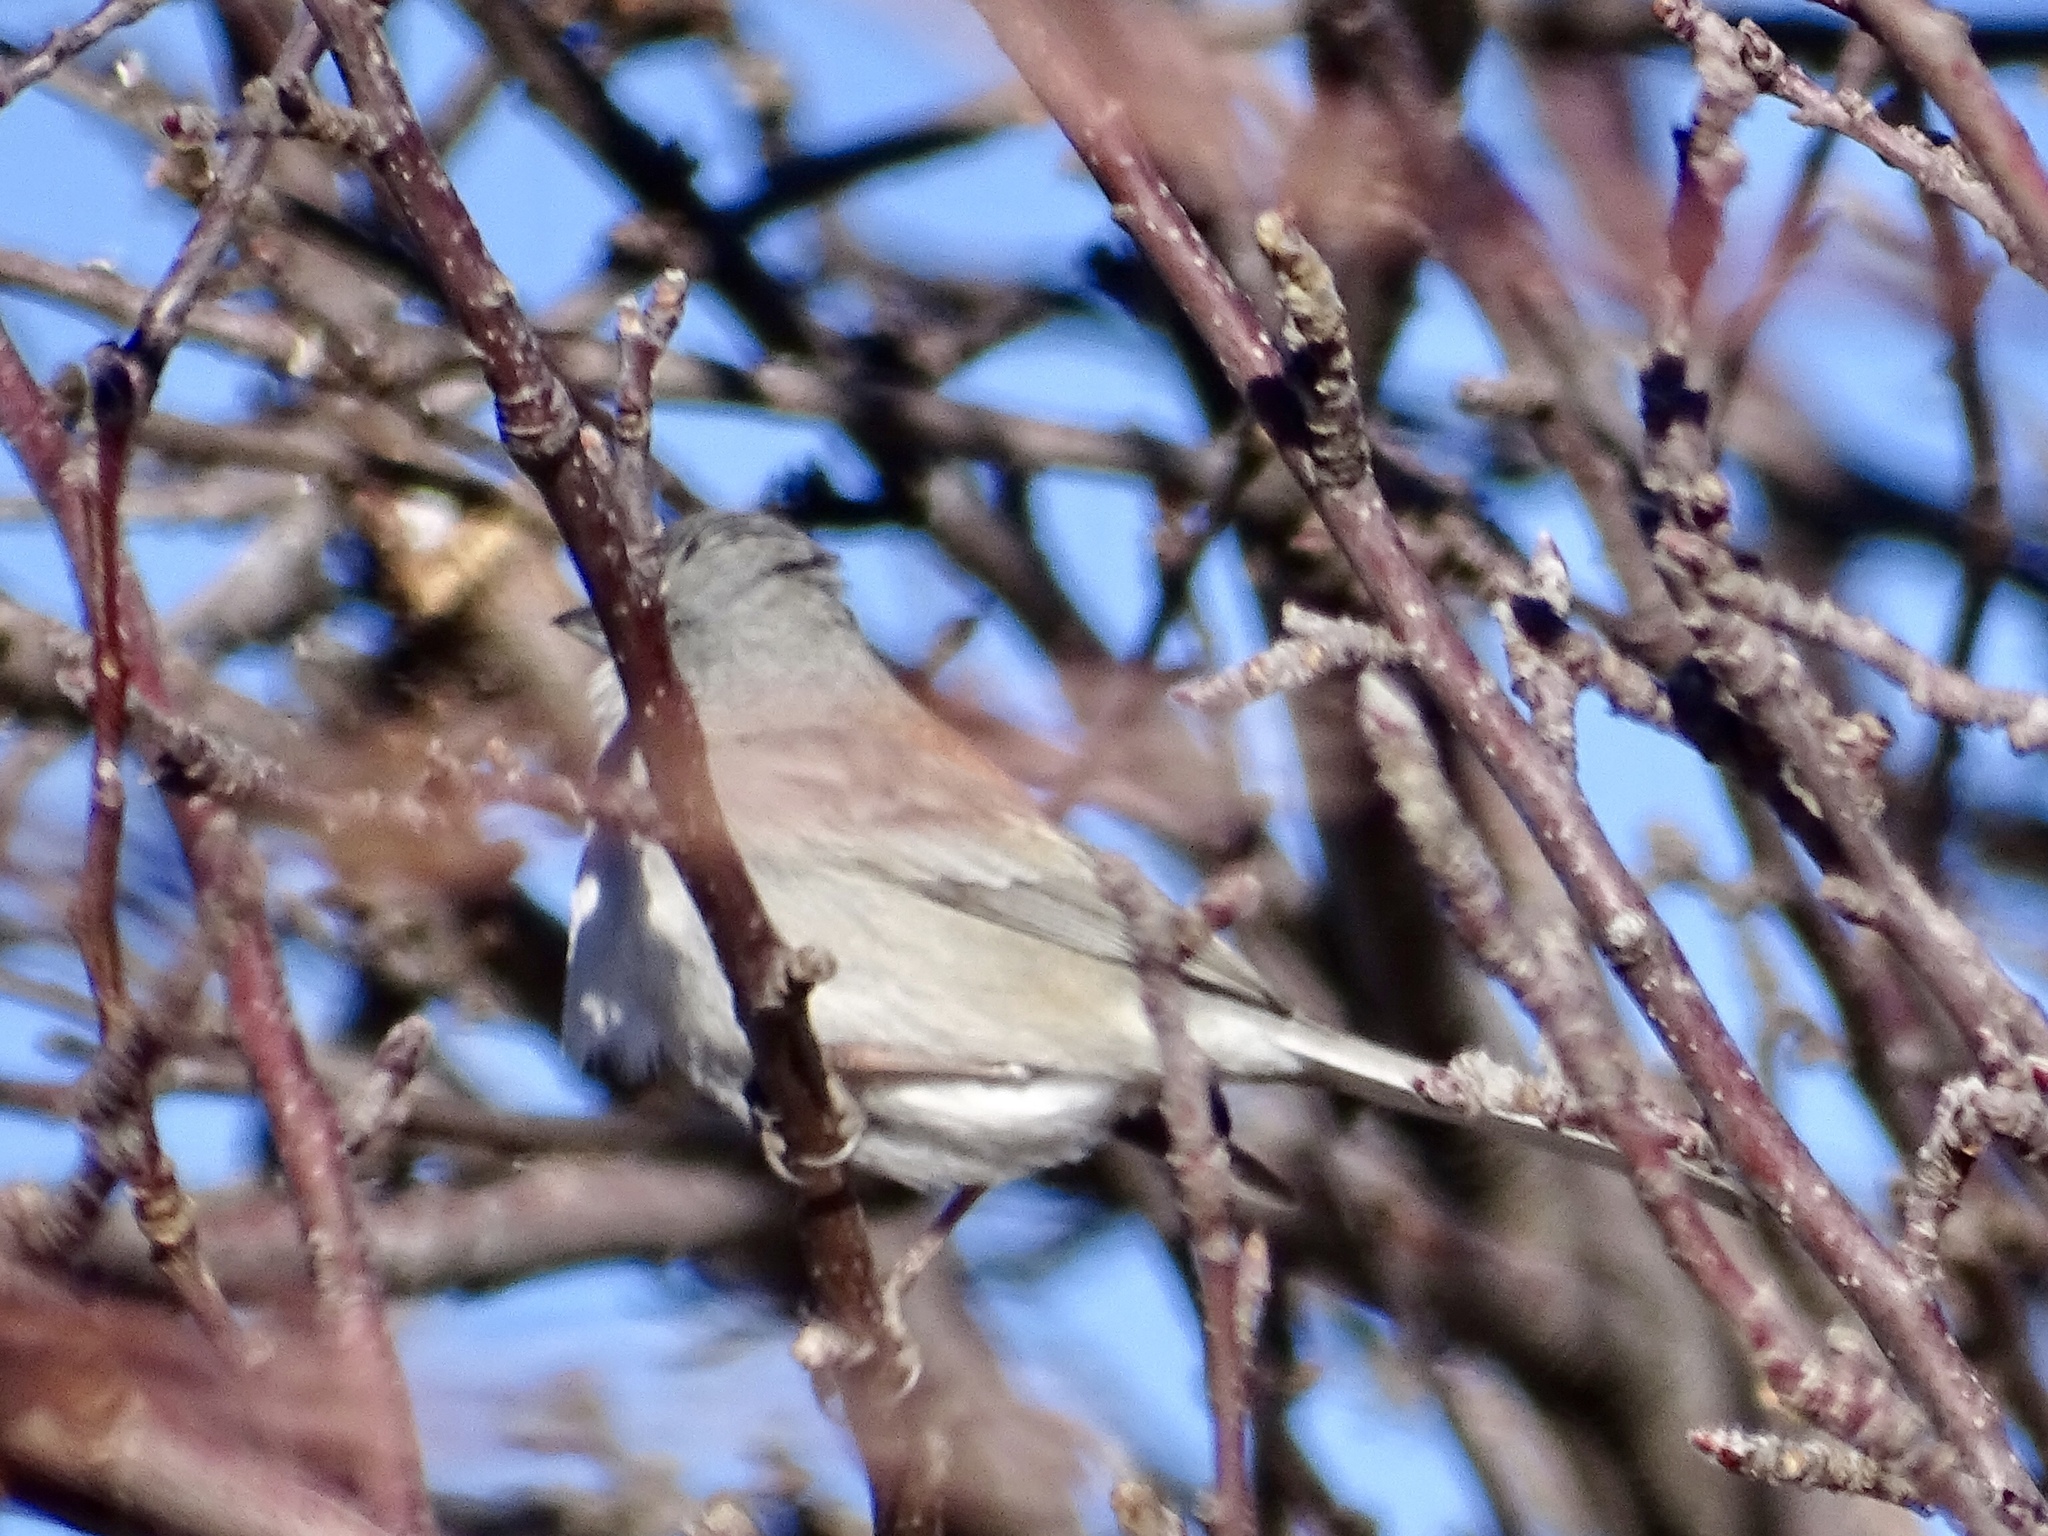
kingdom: Animalia
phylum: Chordata
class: Aves
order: Passeriformes
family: Passerellidae
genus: Junco
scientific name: Junco hyemalis
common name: Dark-eyed junco
